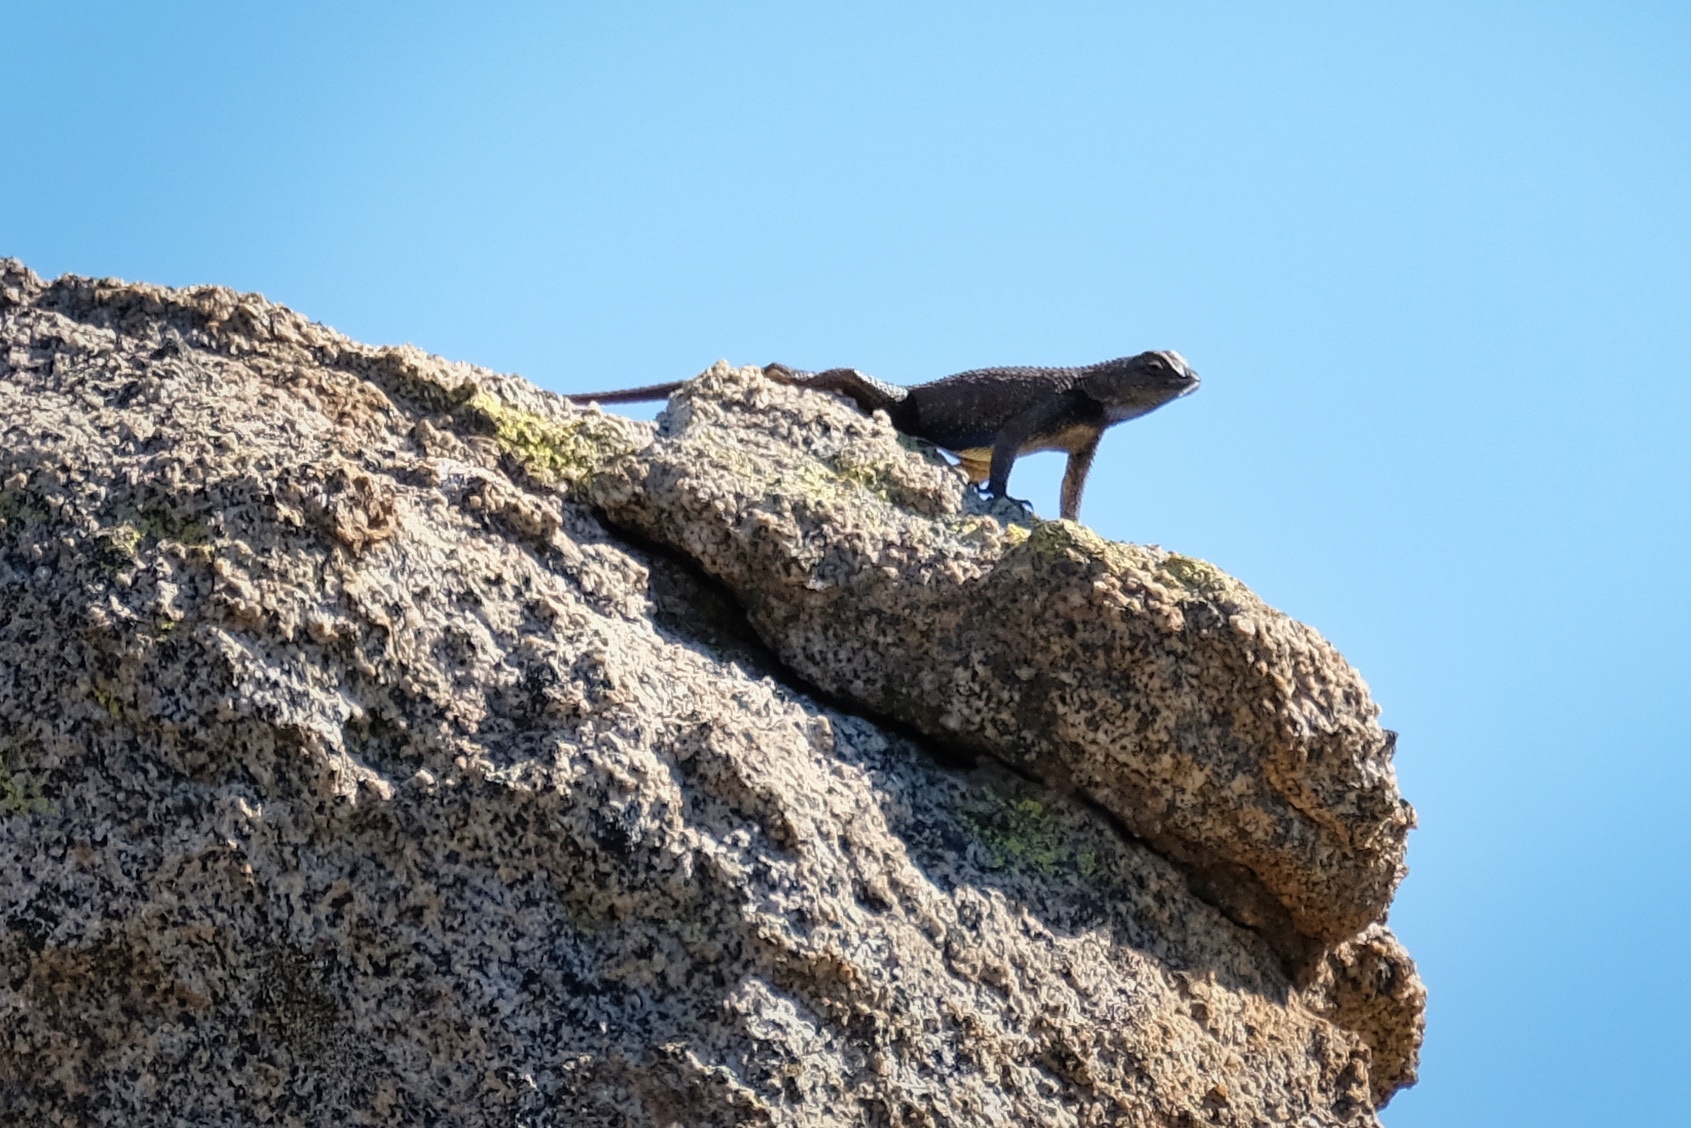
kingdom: Animalia
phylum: Chordata
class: Squamata
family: Phrynosomatidae
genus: Sceloporus
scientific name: Sceloporus occidentalis
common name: Western fence lizard
